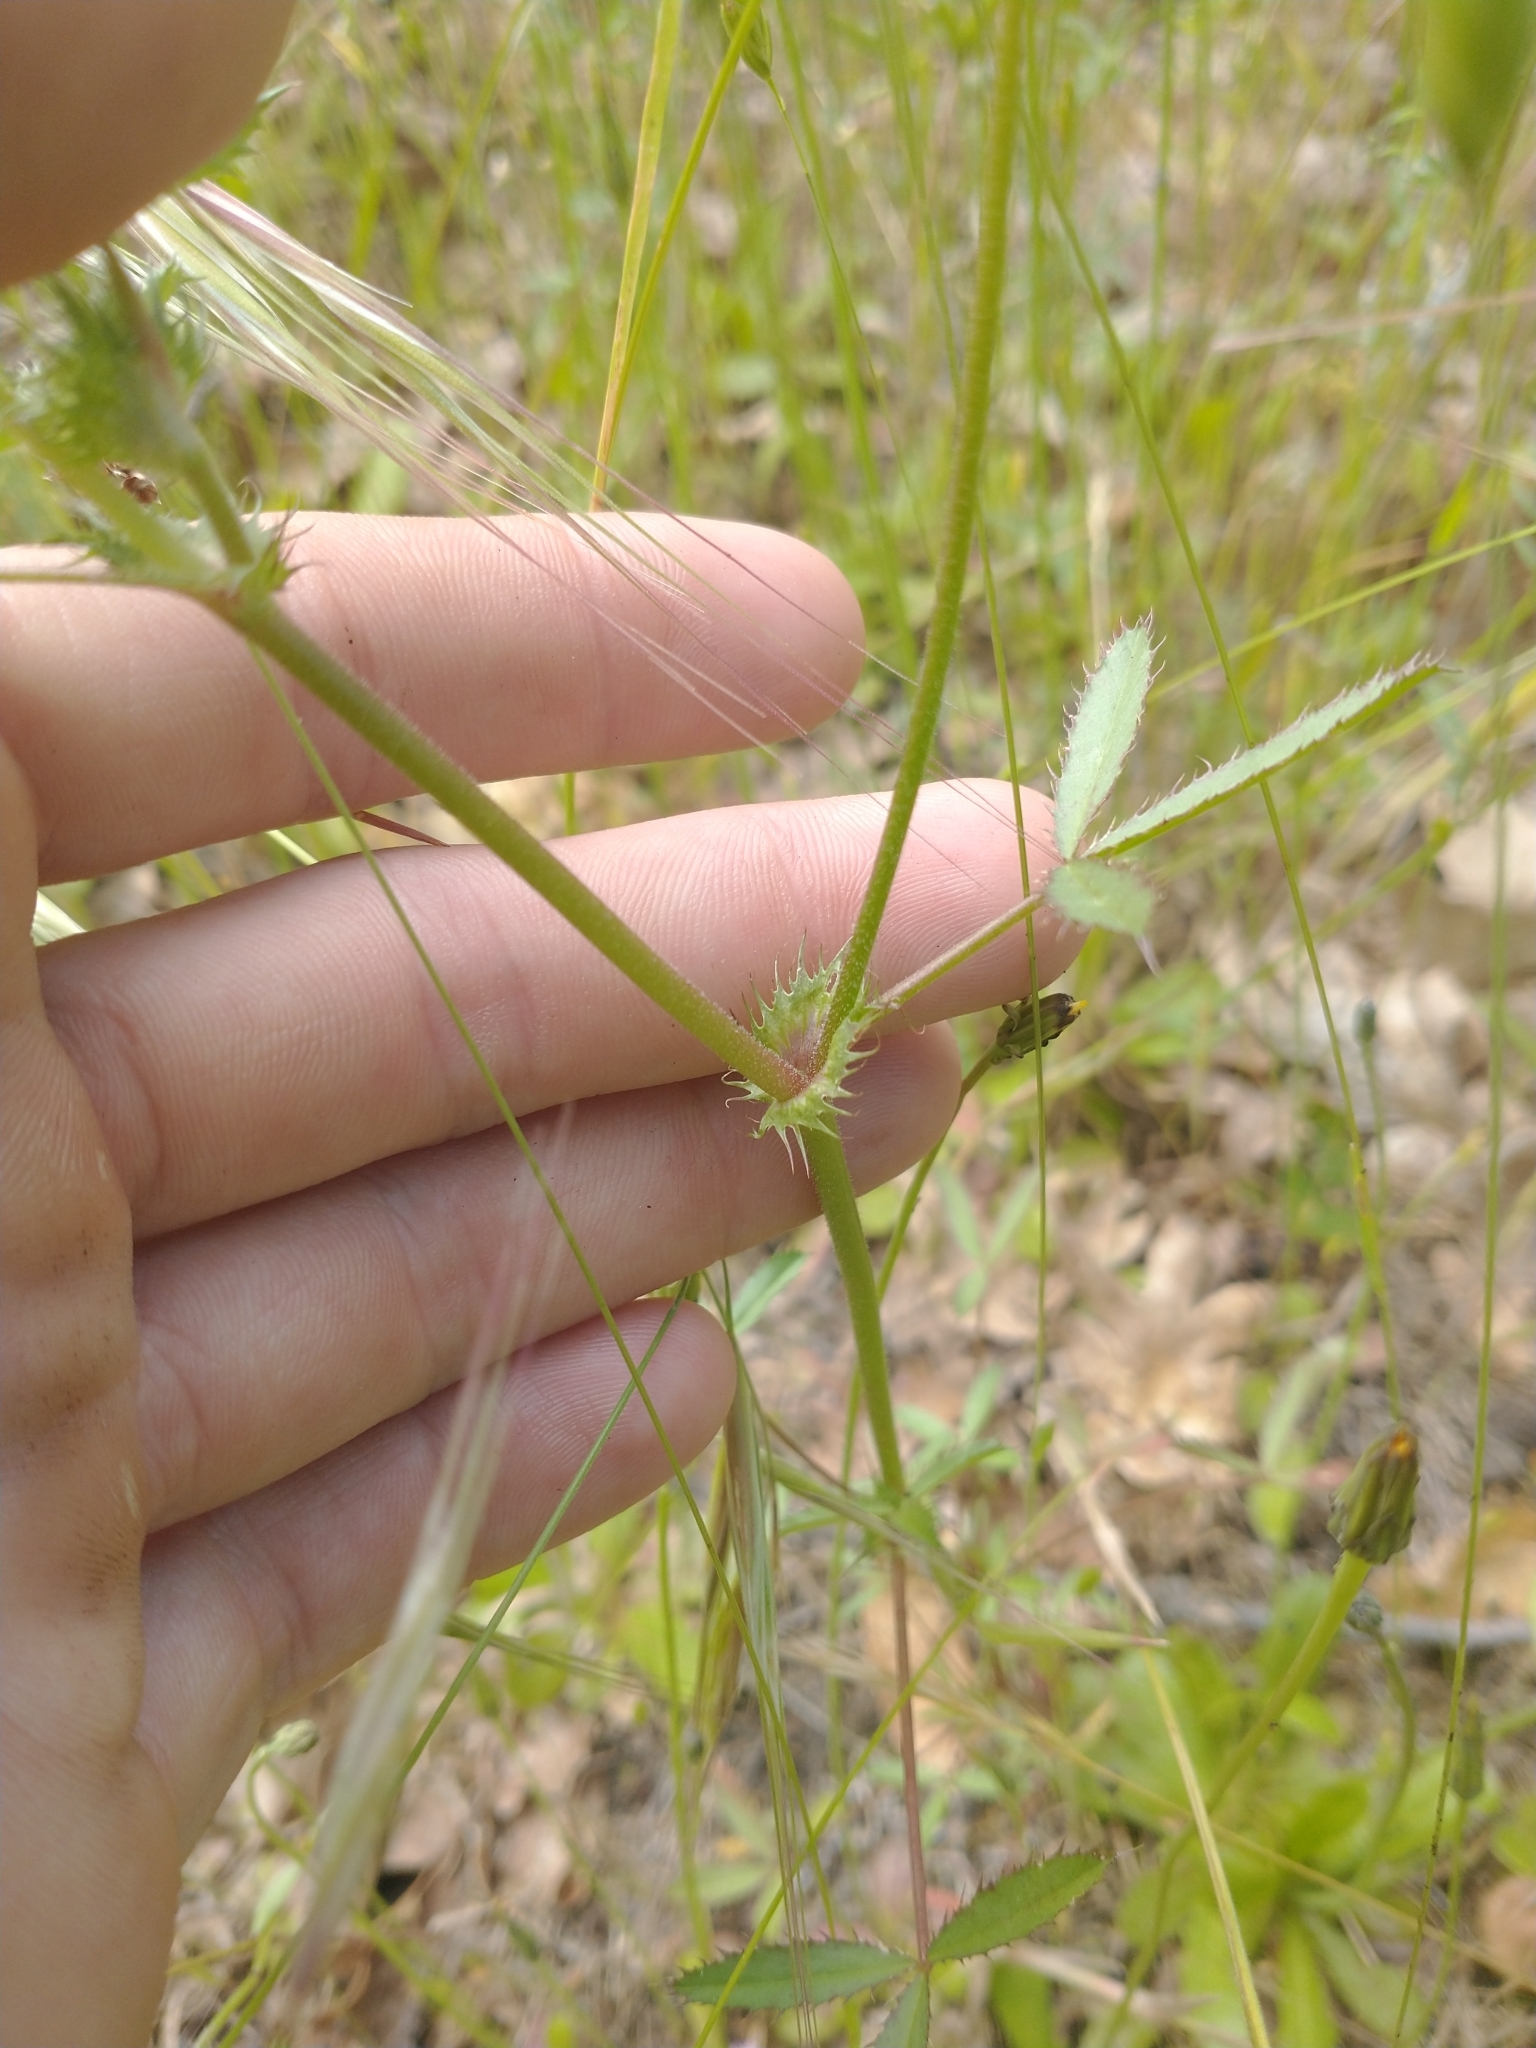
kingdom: Plantae
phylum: Tracheophyta
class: Magnoliopsida
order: Fabales
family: Fabaceae
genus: Trifolium
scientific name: Trifolium willdenovii
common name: Tomcat clover
